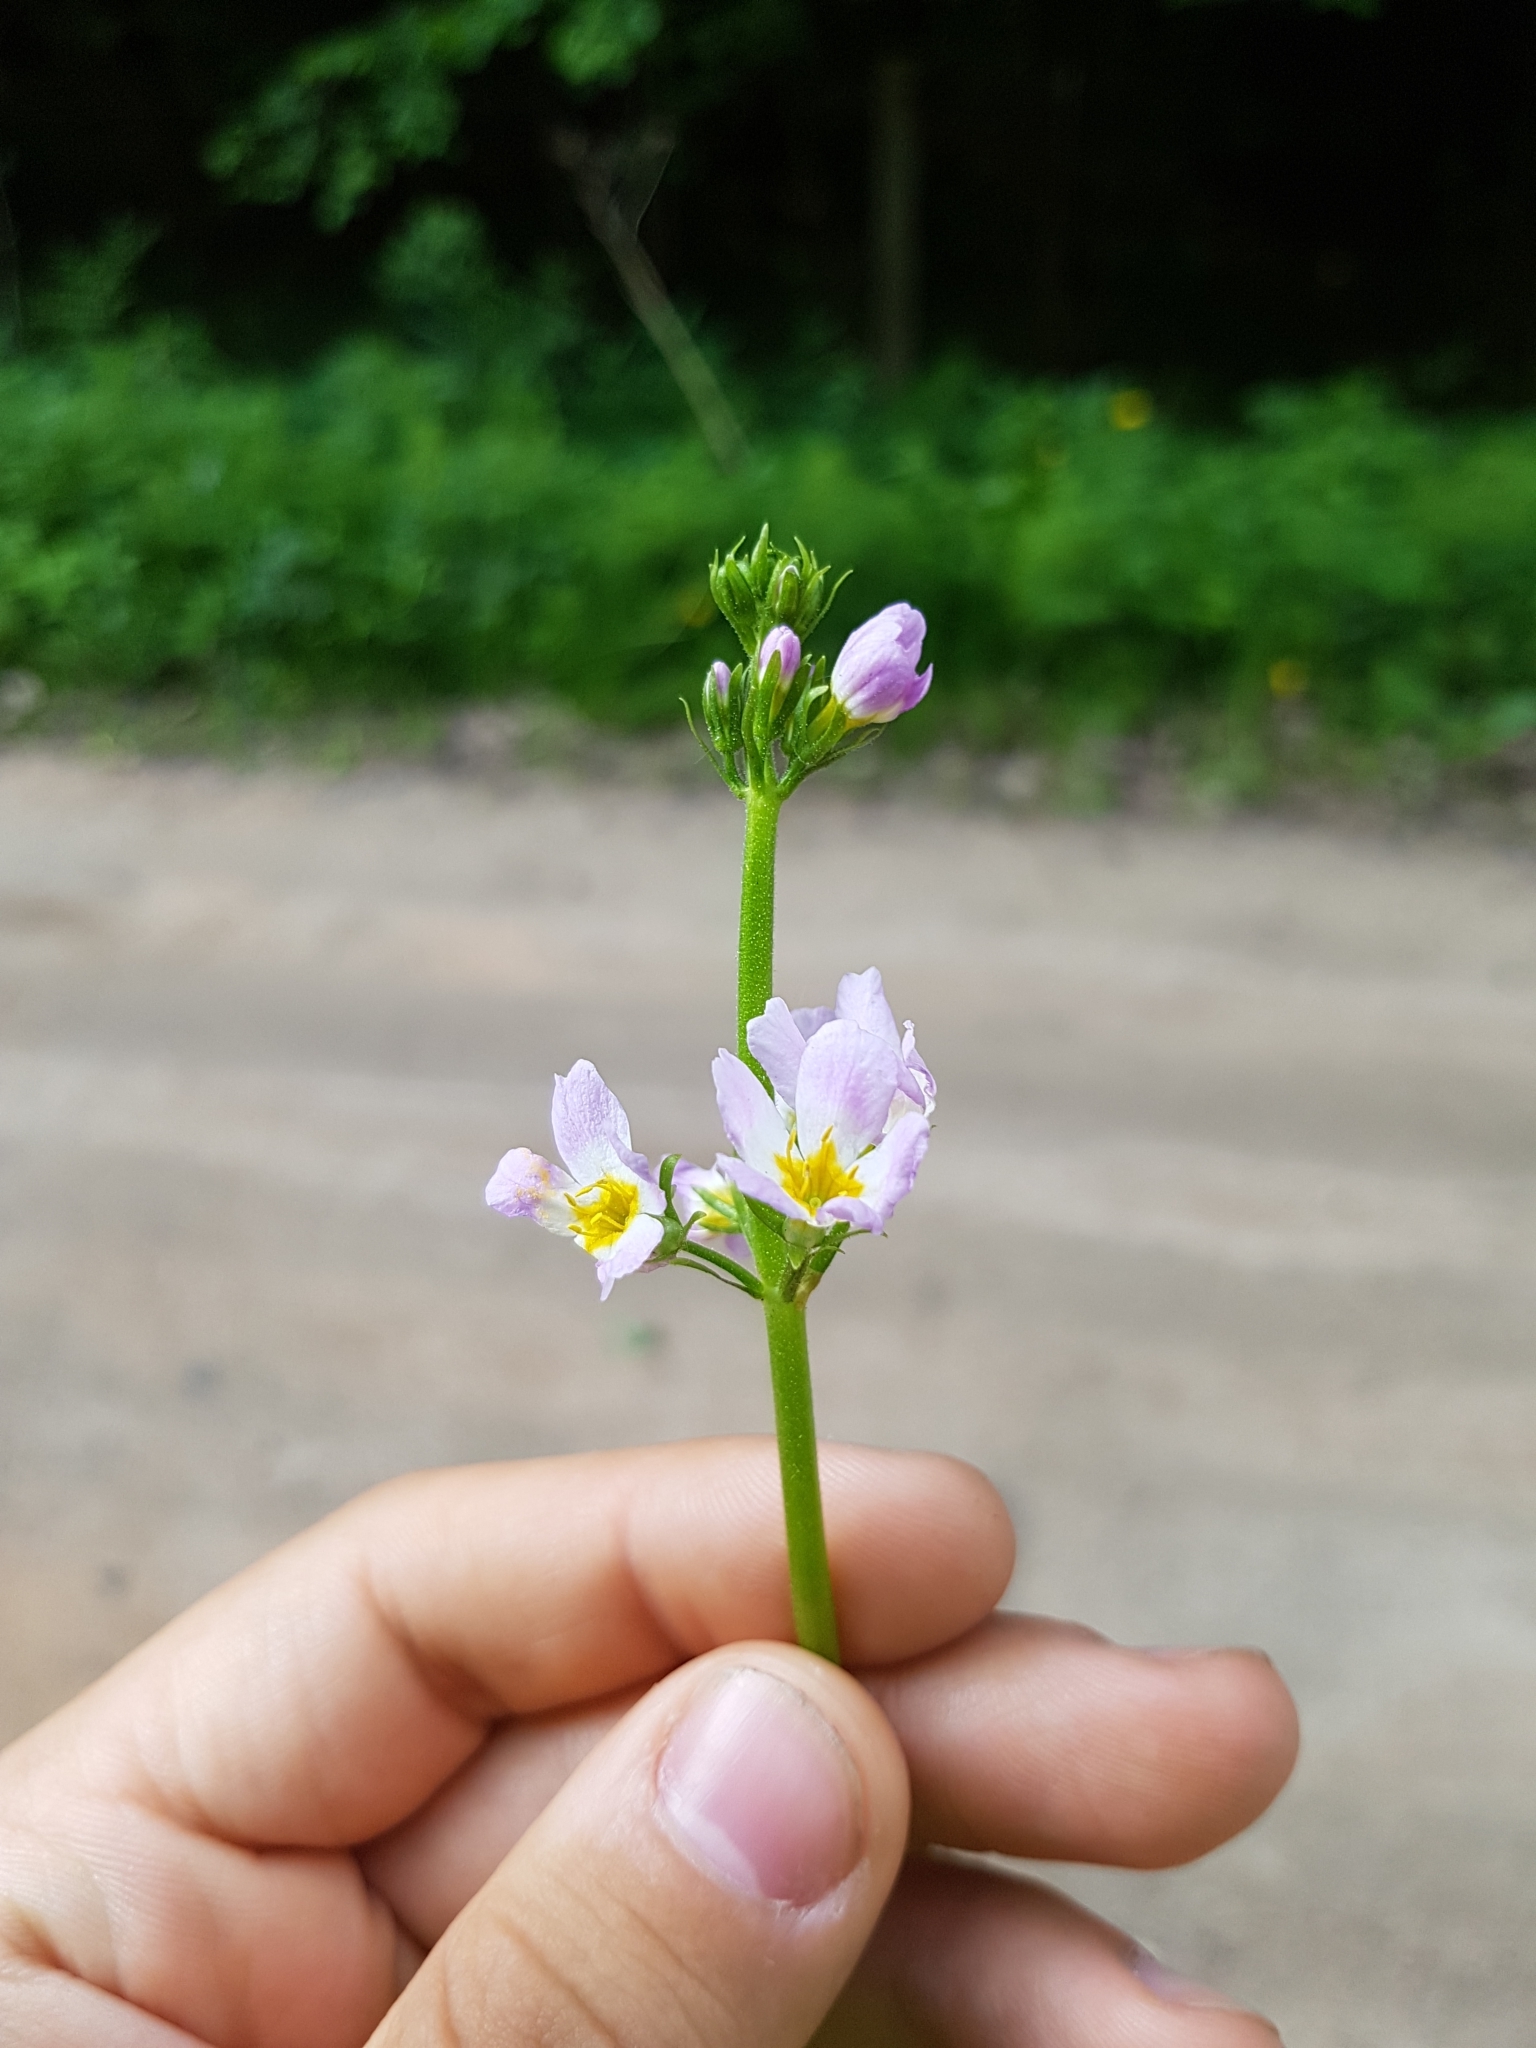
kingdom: Plantae
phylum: Tracheophyta
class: Magnoliopsida
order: Ericales
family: Primulaceae
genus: Hottonia
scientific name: Hottonia palustris
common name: Water-violet
